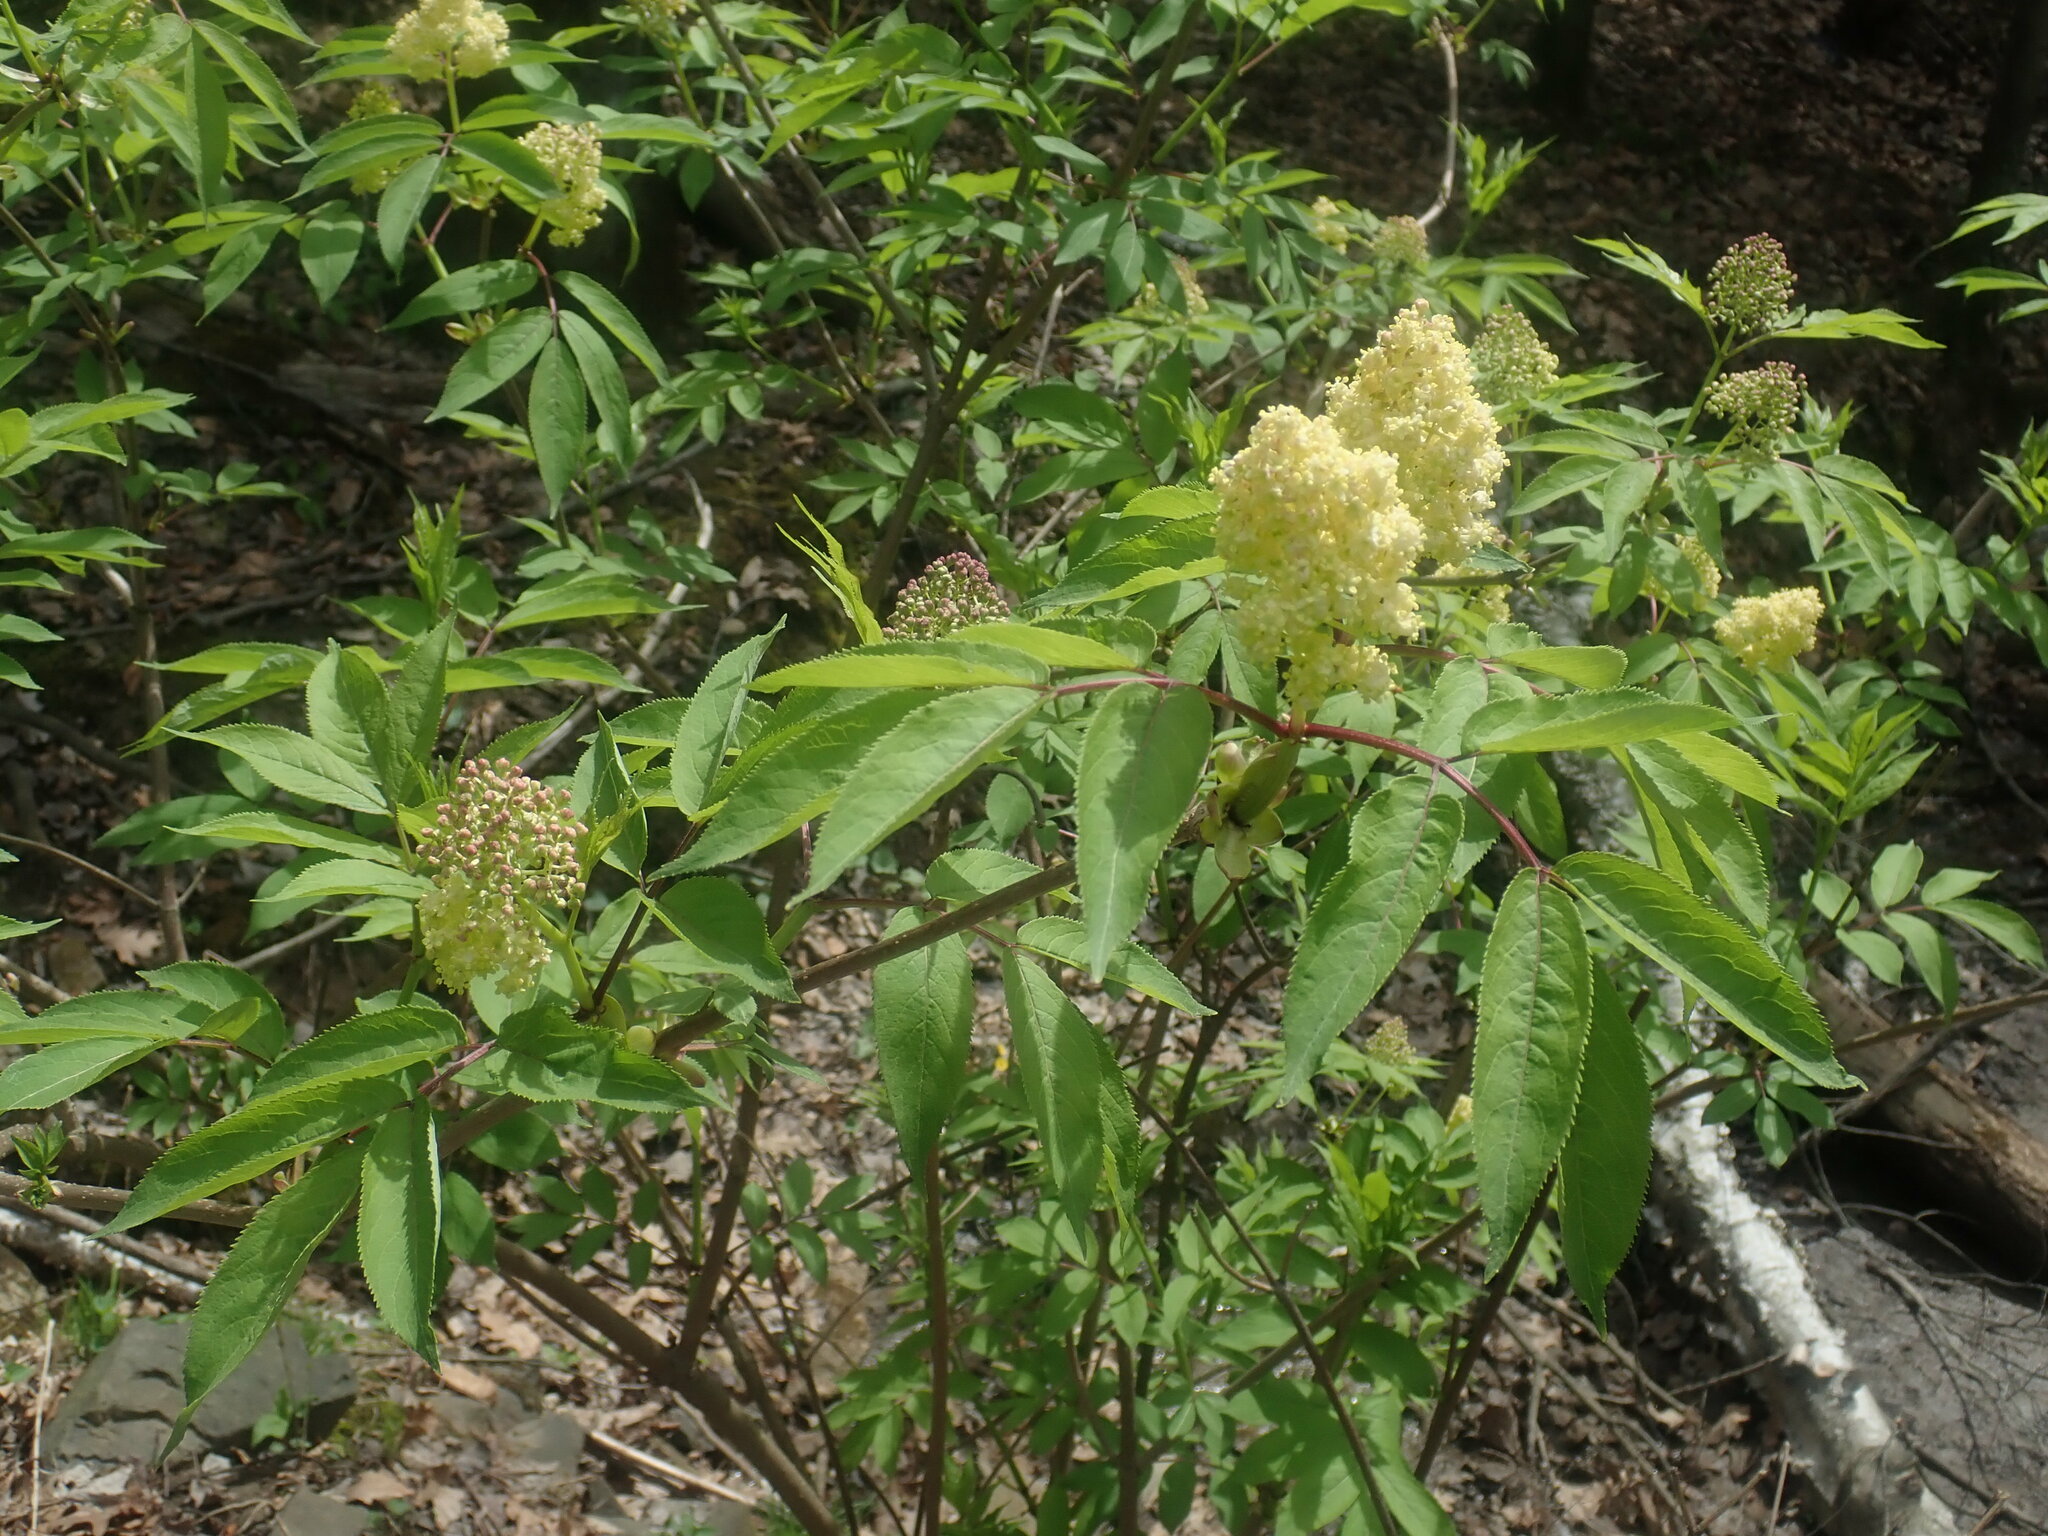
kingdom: Plantae
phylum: Tracheophyta
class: Magnoliopsida
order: Dipsacales
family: Viburnaceae
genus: Sambucus
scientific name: Sambucus racemosa
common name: Red-berried elder
